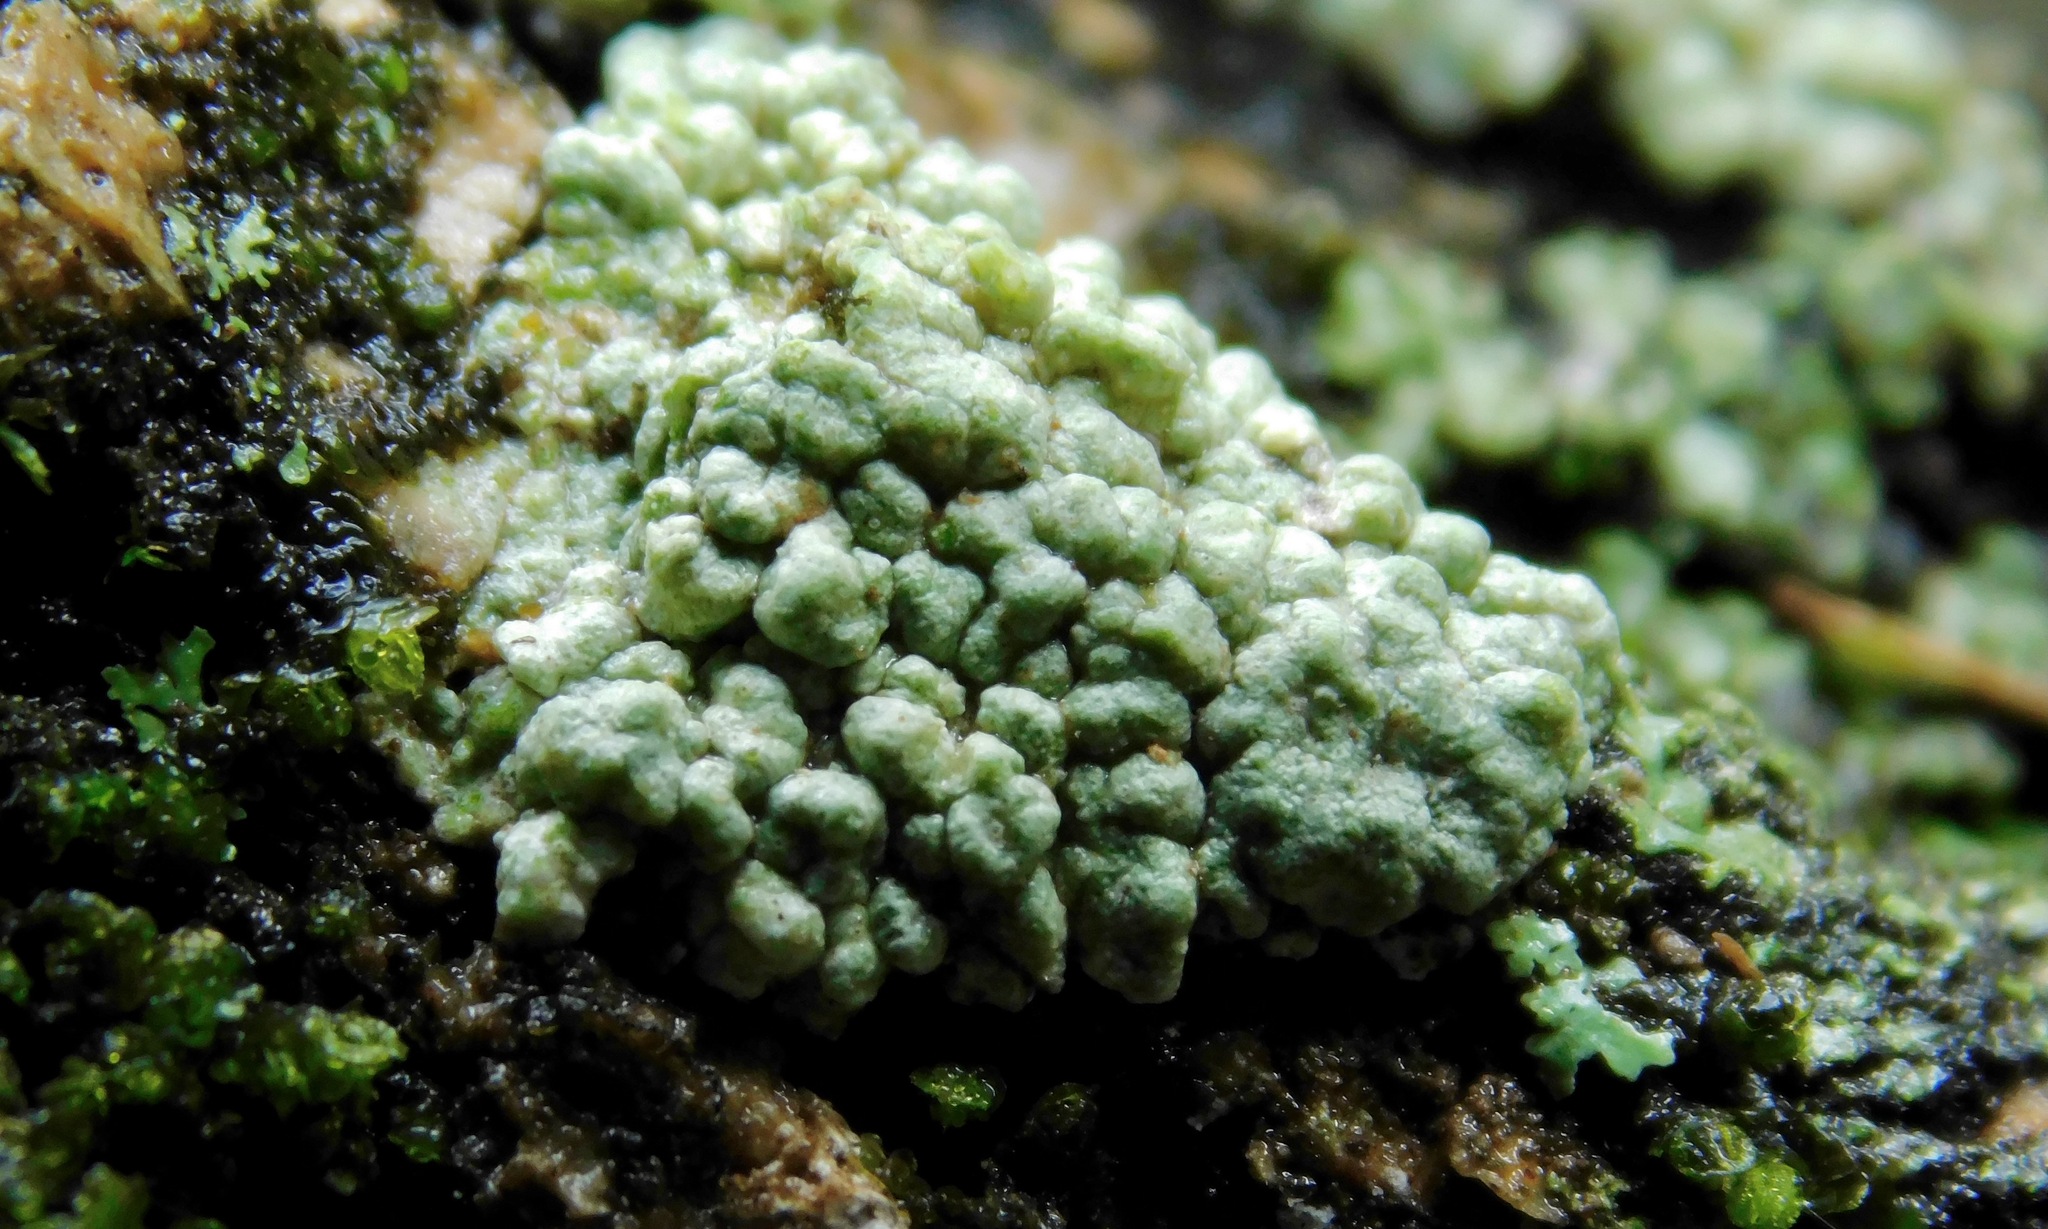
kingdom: Fungi
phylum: Ascomycota
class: Lecanoromycetes
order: Pertusariales
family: Pertusariaceae
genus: Pertusaria
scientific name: Pertusaria paratuberculifera
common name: Spotted wart lichen
